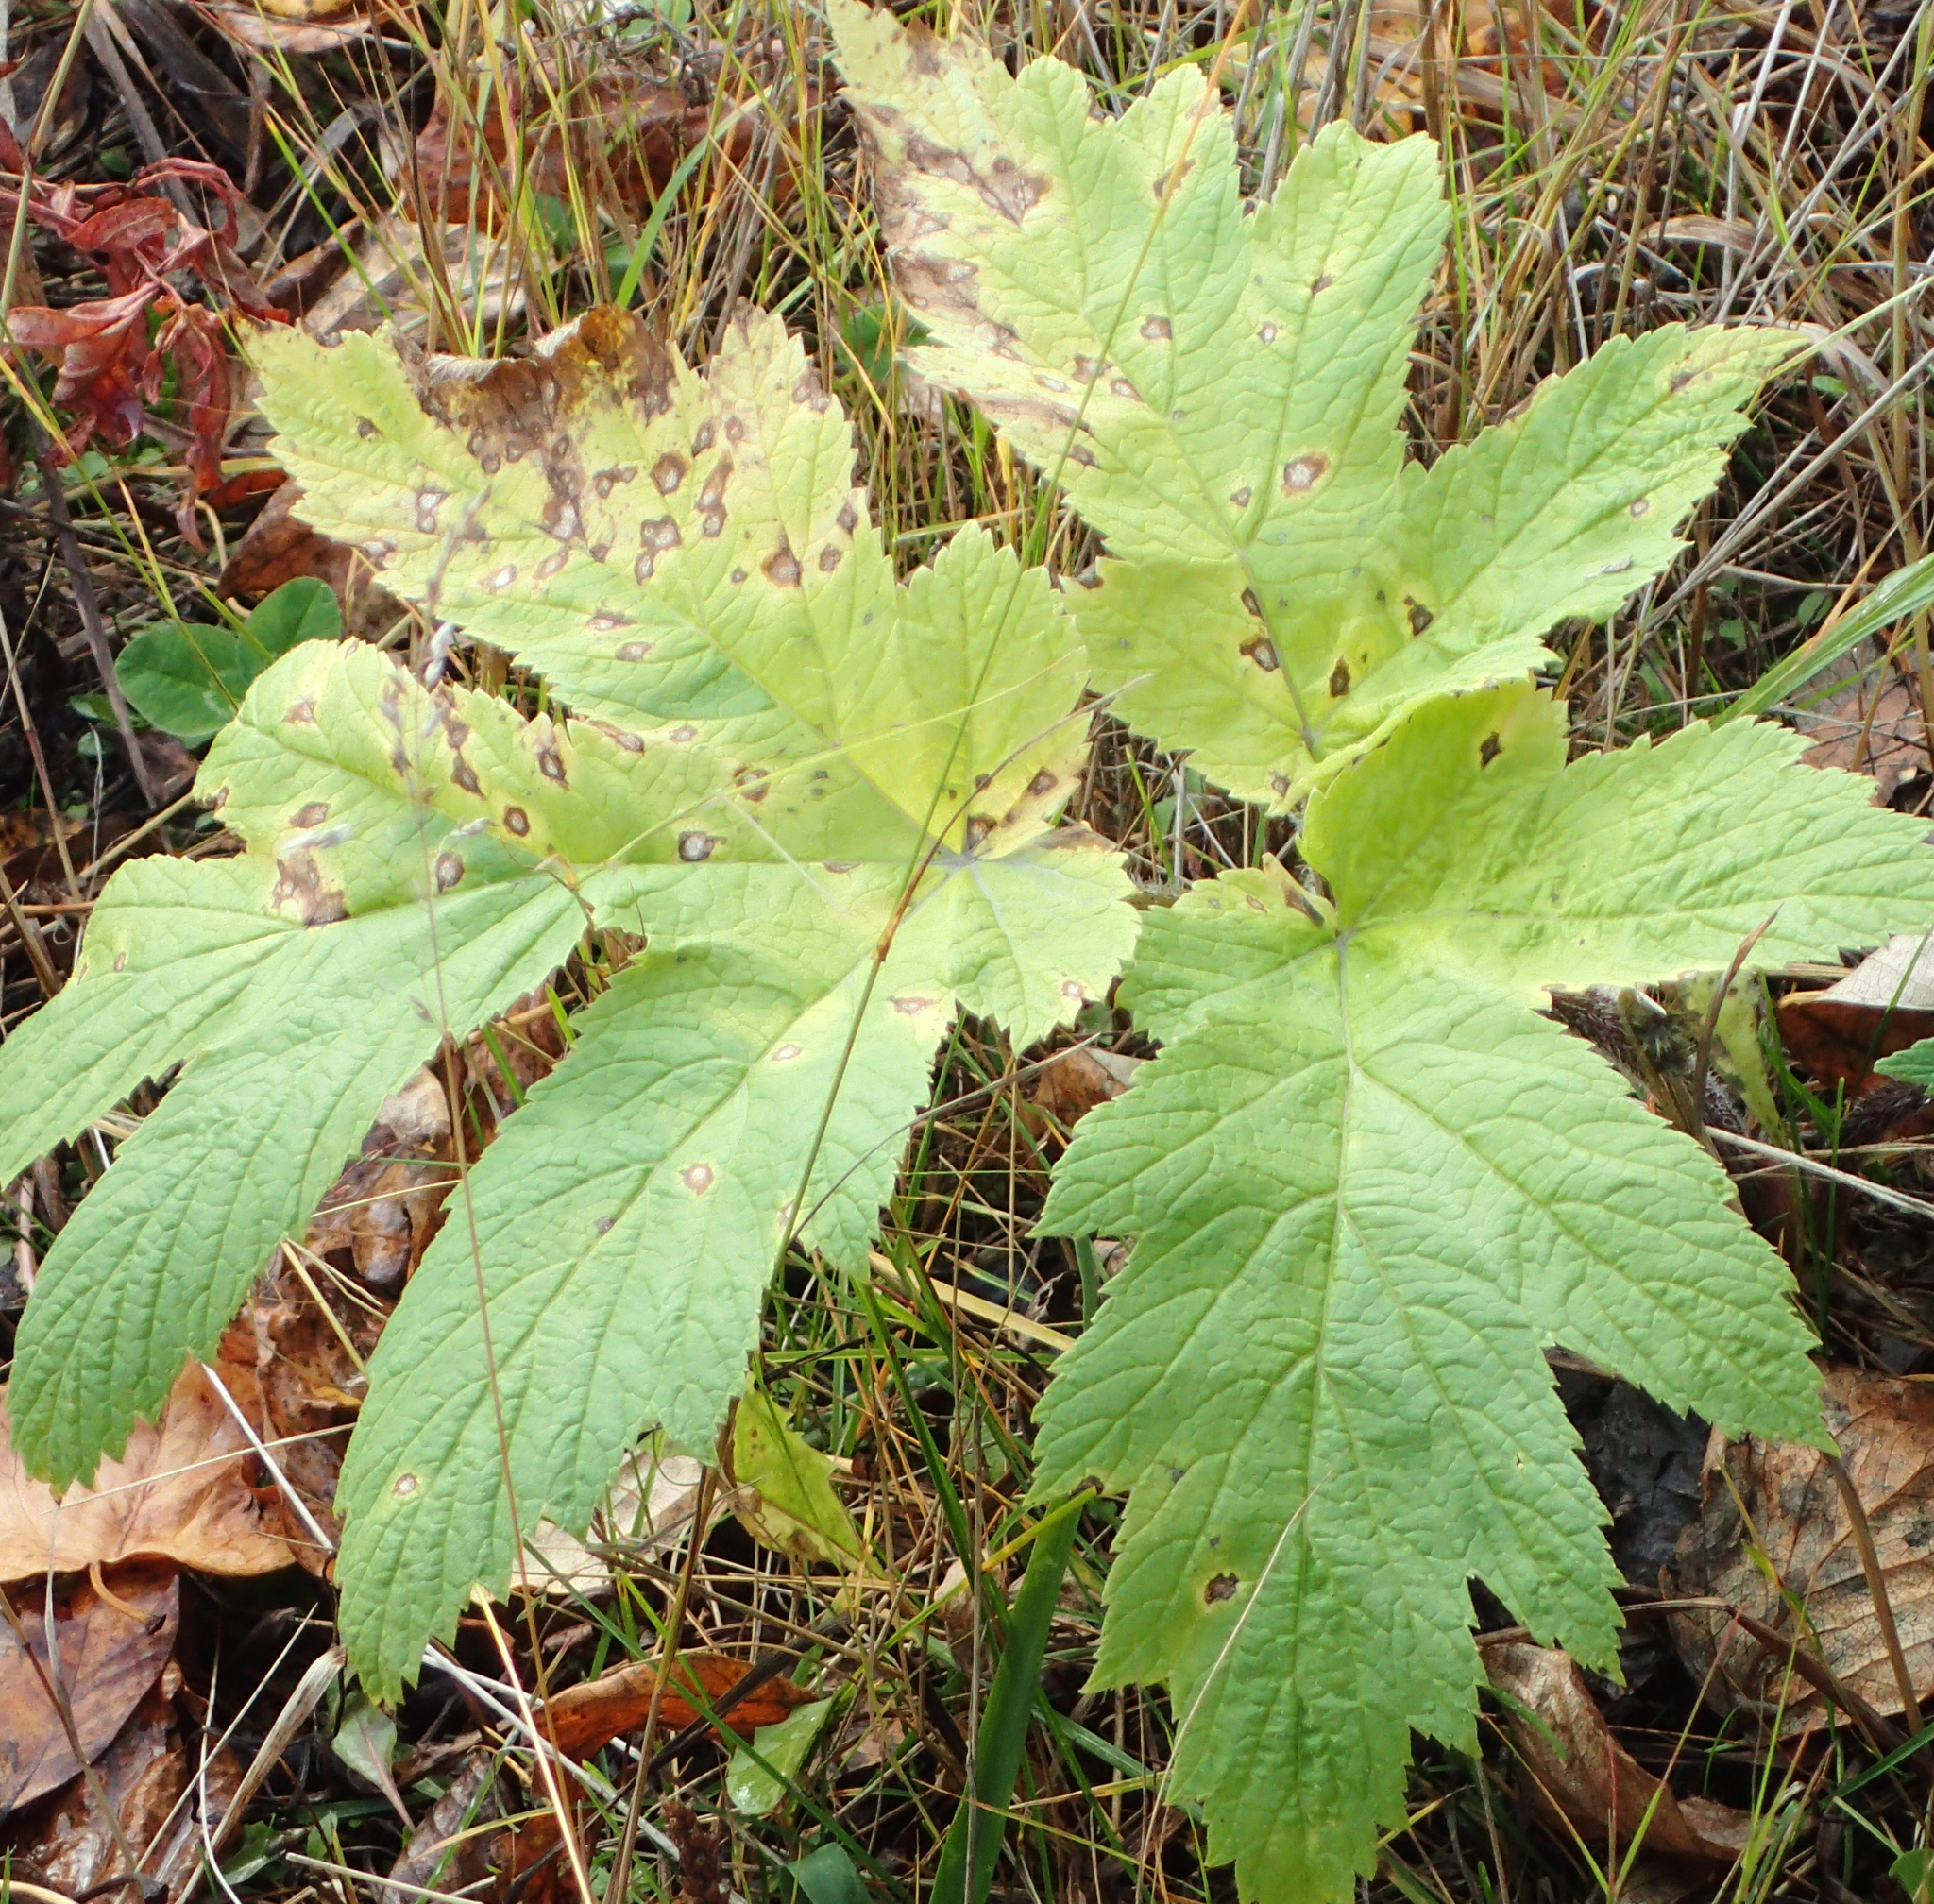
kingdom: Plantae
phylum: Tracheophyta
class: Magnoliopsida
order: Apiales
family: Apiaceae
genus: Heracleum
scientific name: Heracleum maximum
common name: American cow parsnip
